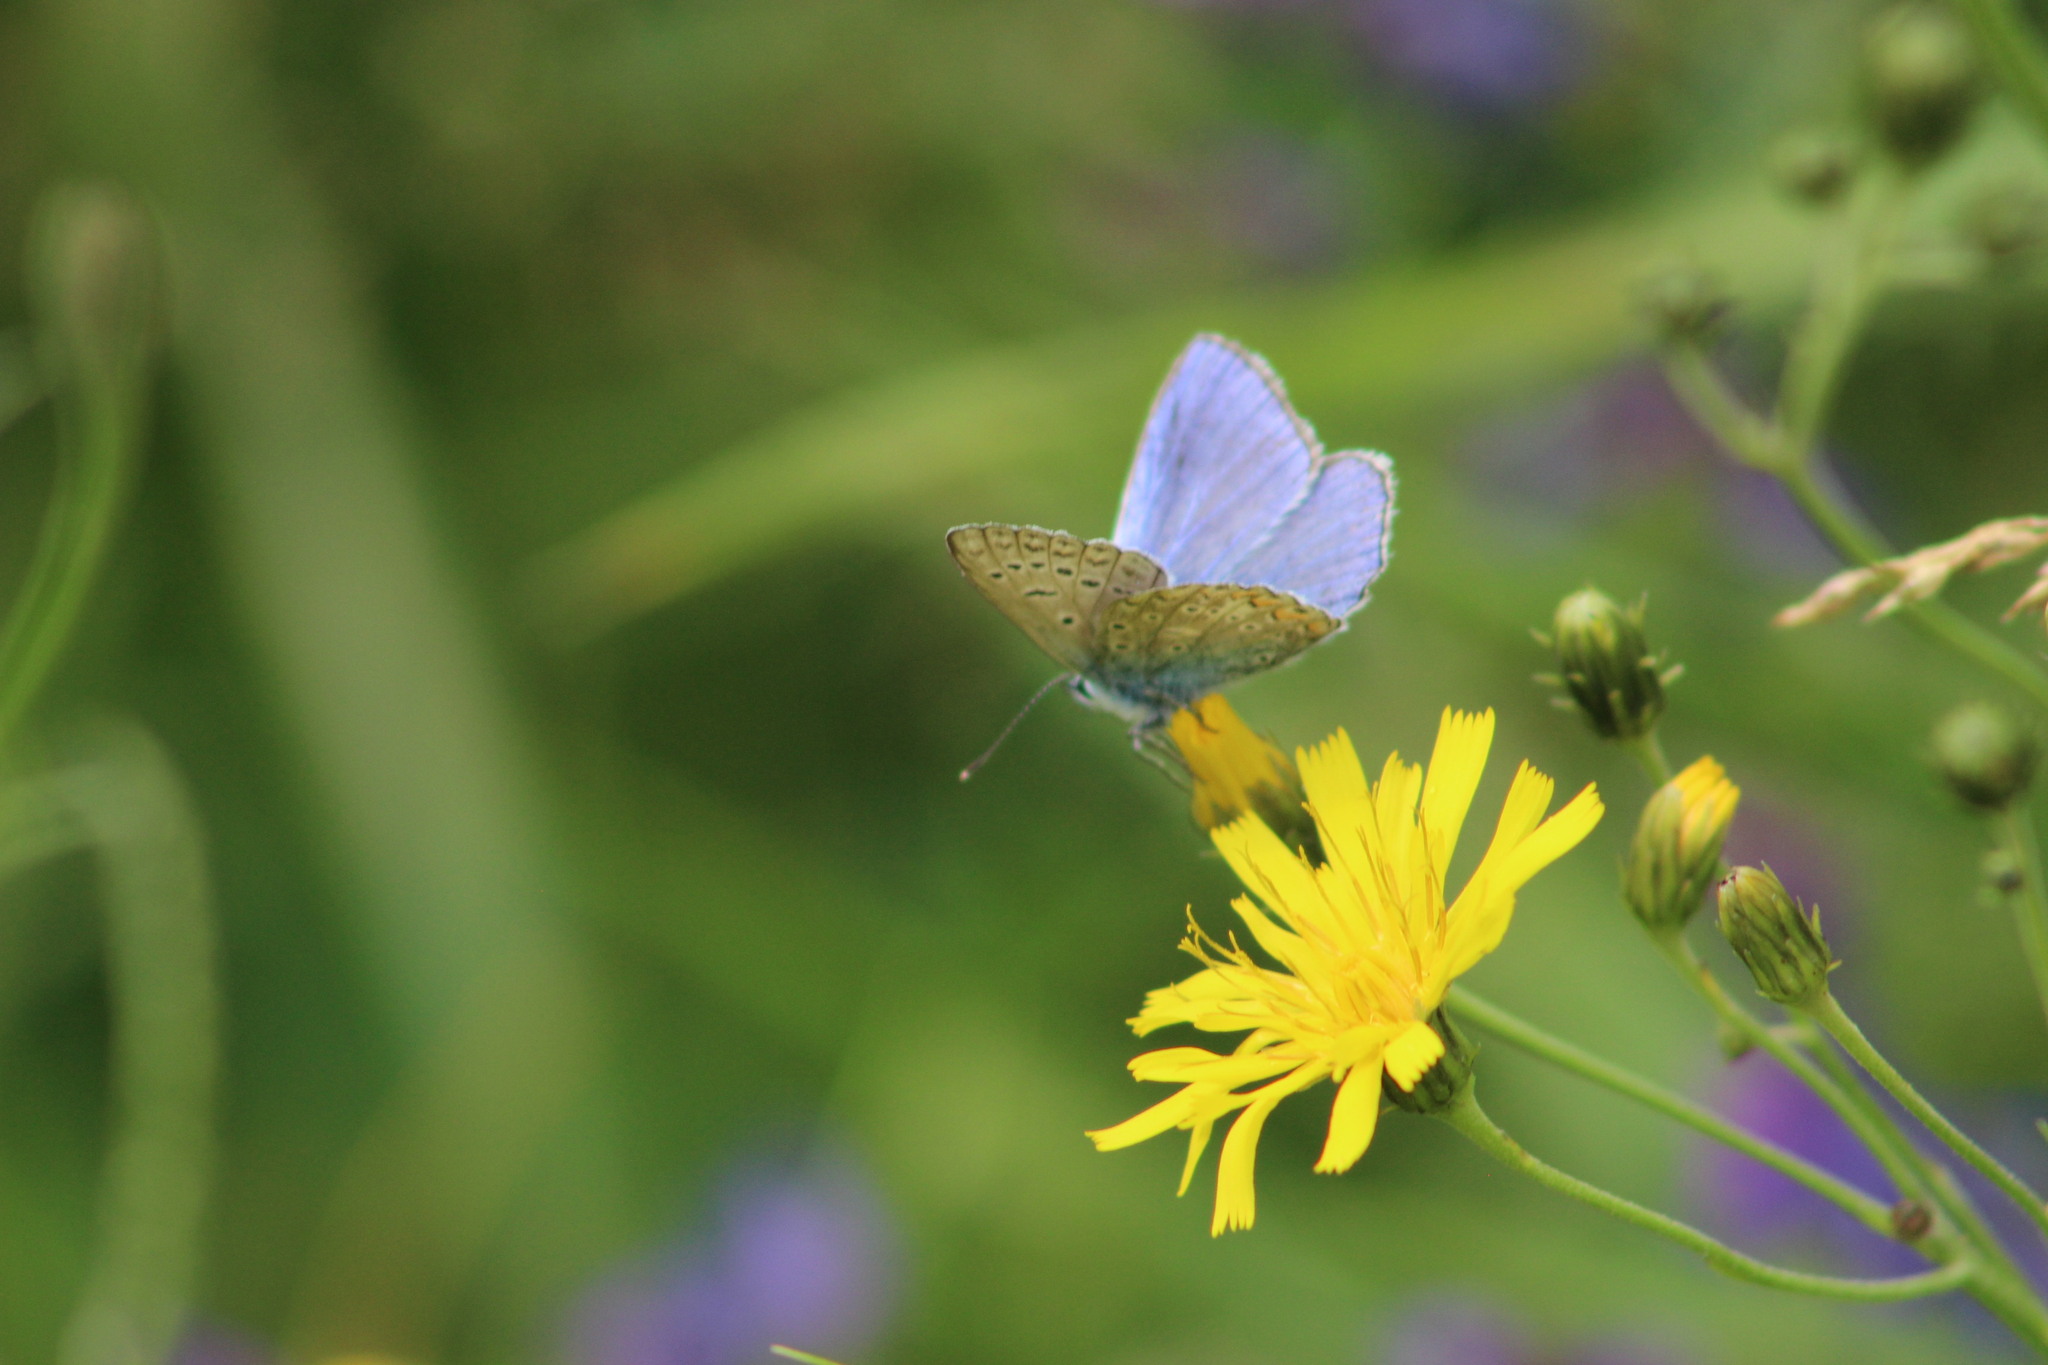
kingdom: Animalia
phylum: Arthropoda
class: Insecta
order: Lepidoptera
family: Lycaenidae
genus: Polyommatus
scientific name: Polyommatus icarus
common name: Common blue
